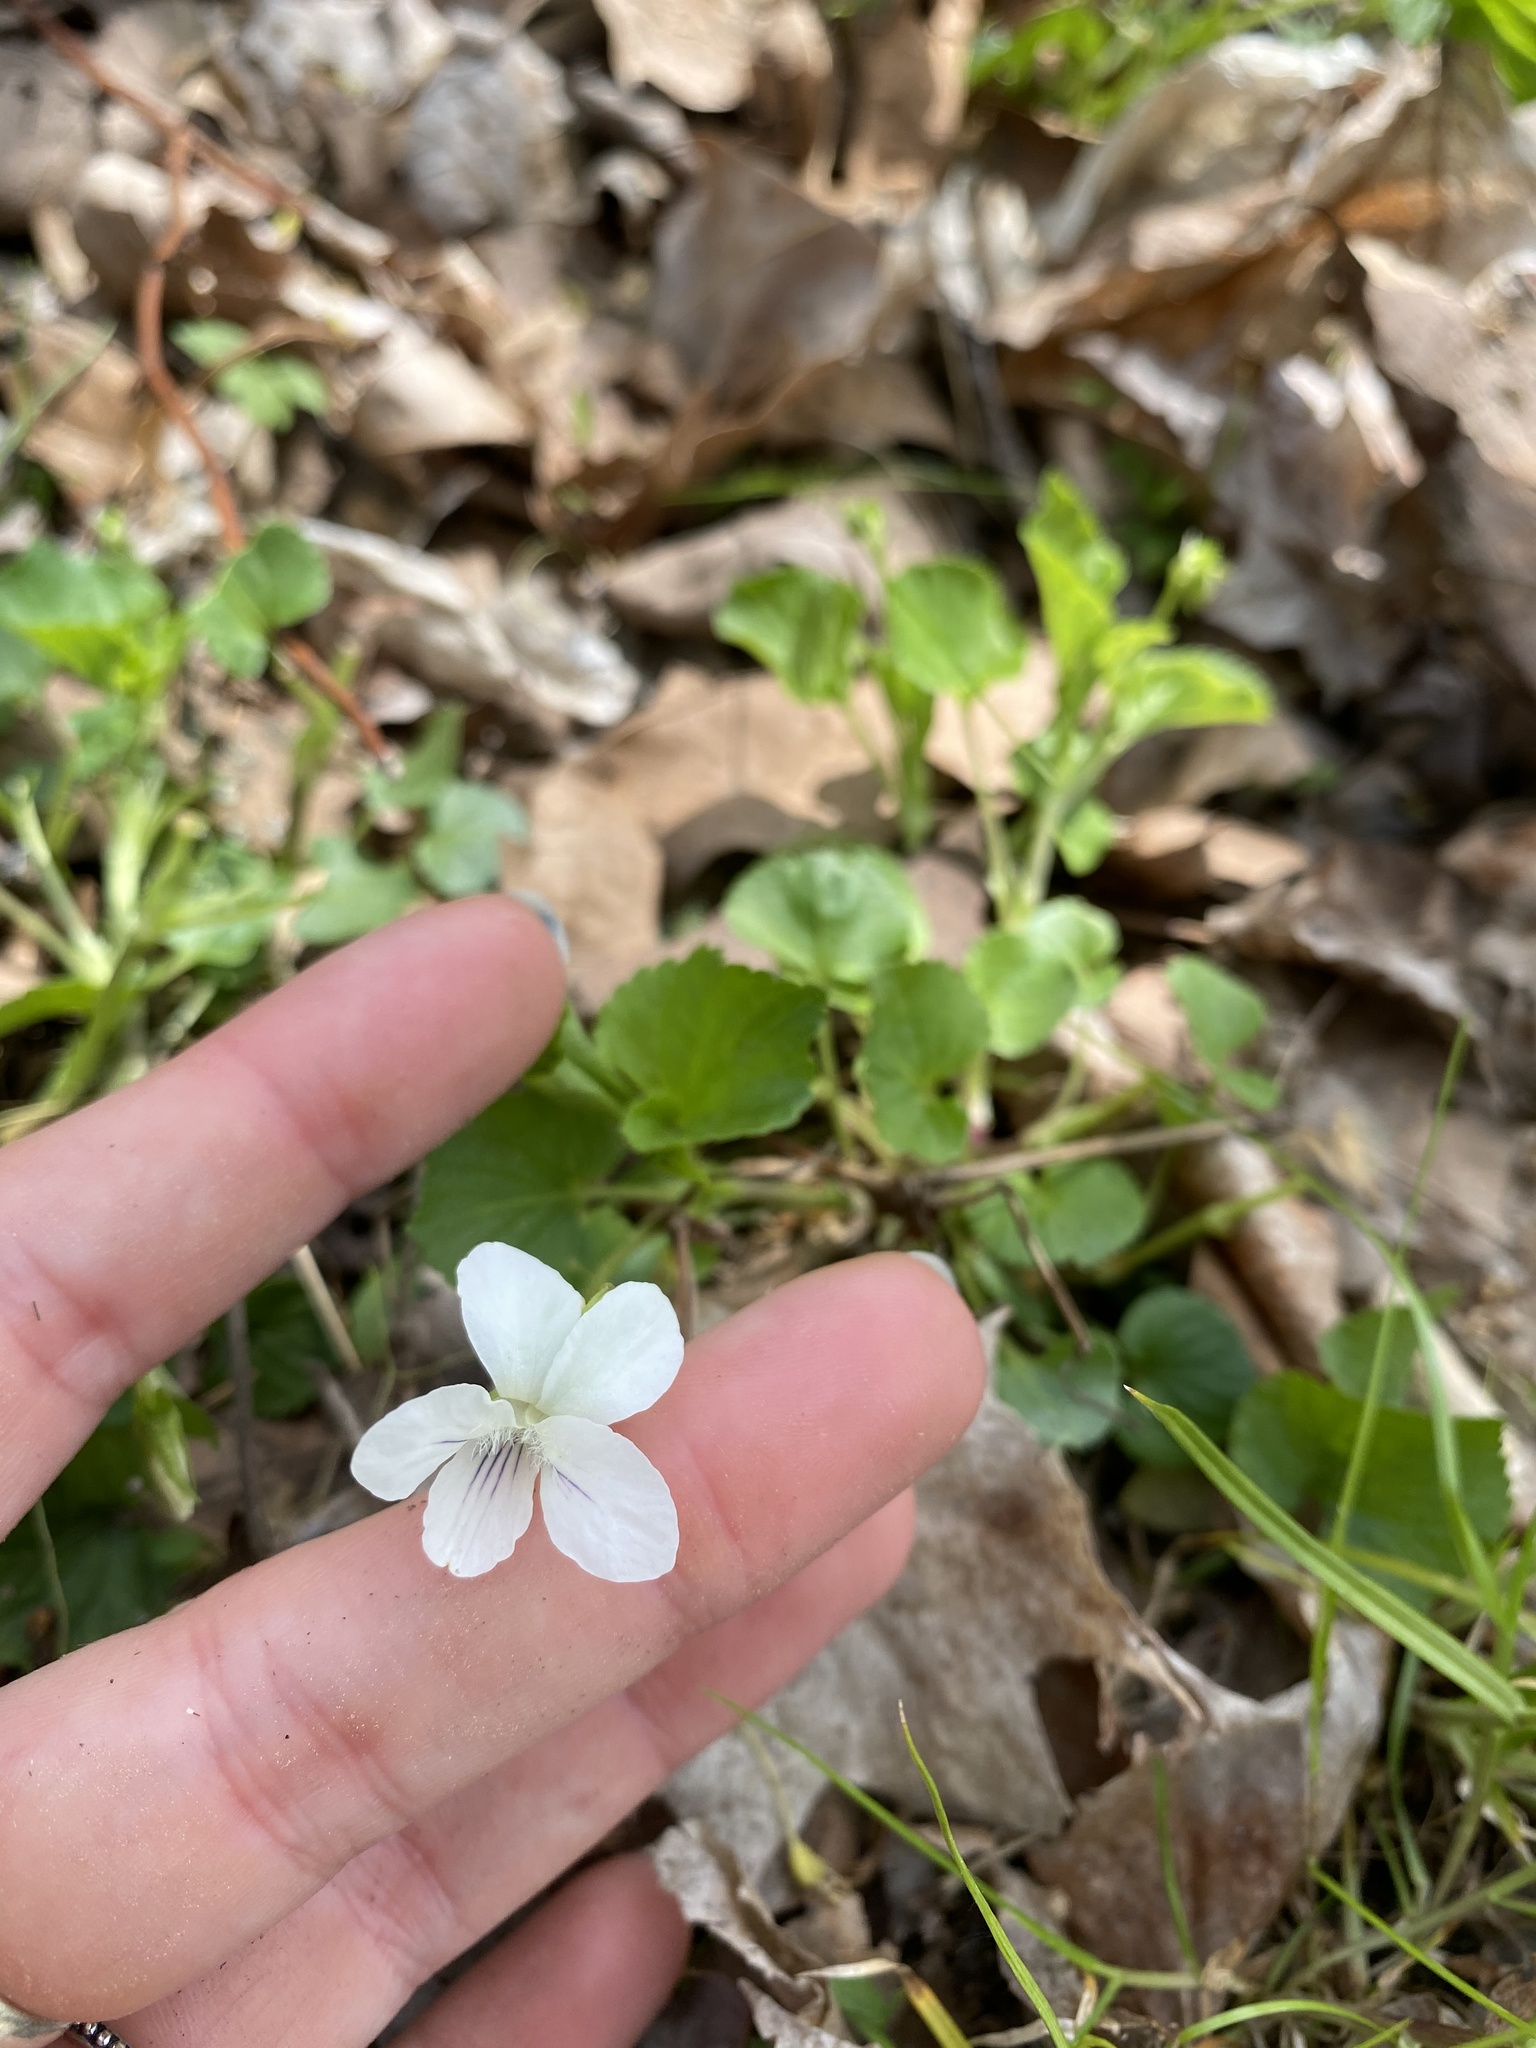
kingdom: Plantae
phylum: Tracheophyta
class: Magnoliopsida
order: Malpighiales
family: Violaceae
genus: Viola
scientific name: Viola striata
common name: Cream violet
